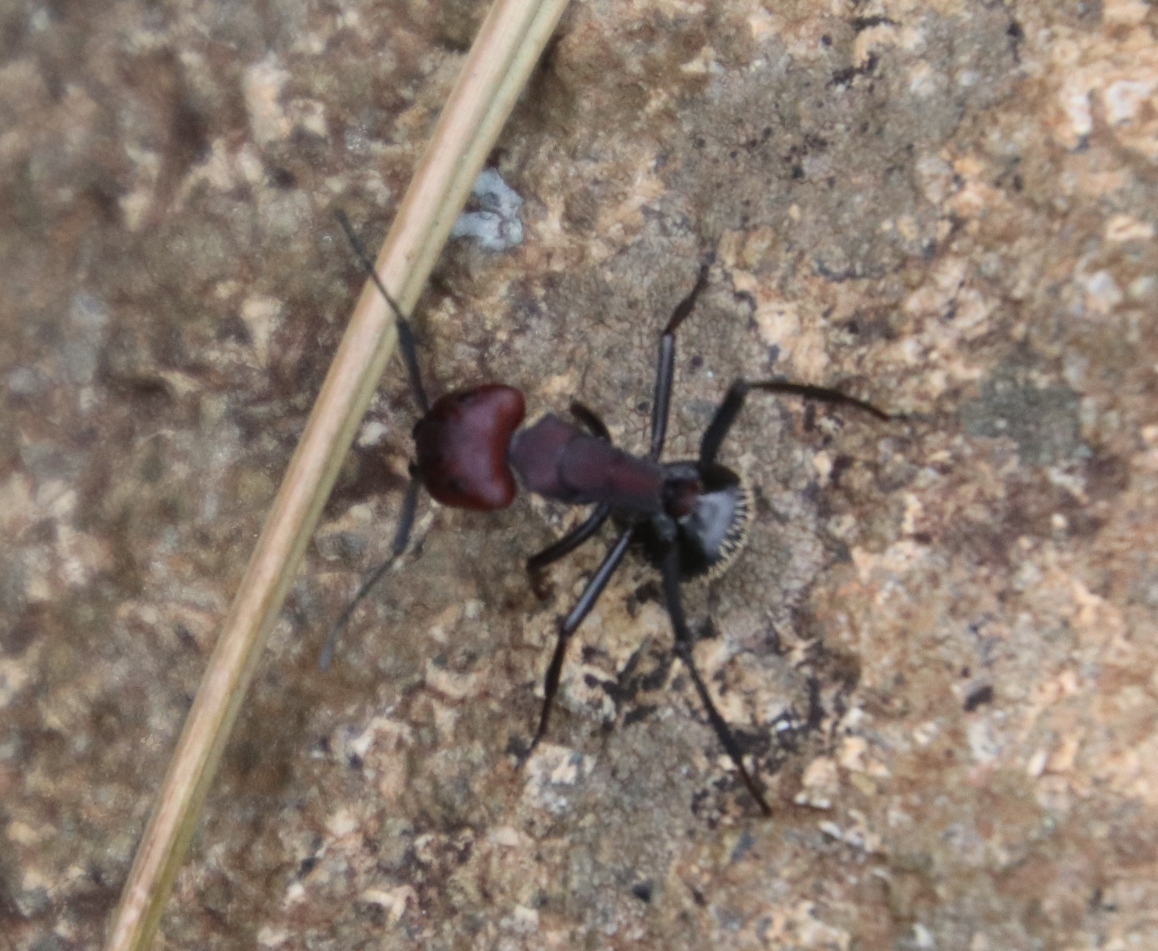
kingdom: Animalia
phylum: Arthropoda
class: Insecta
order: Hymenoptera
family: Formicidae
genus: Camponotus
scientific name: Camponotus brevisetosus
